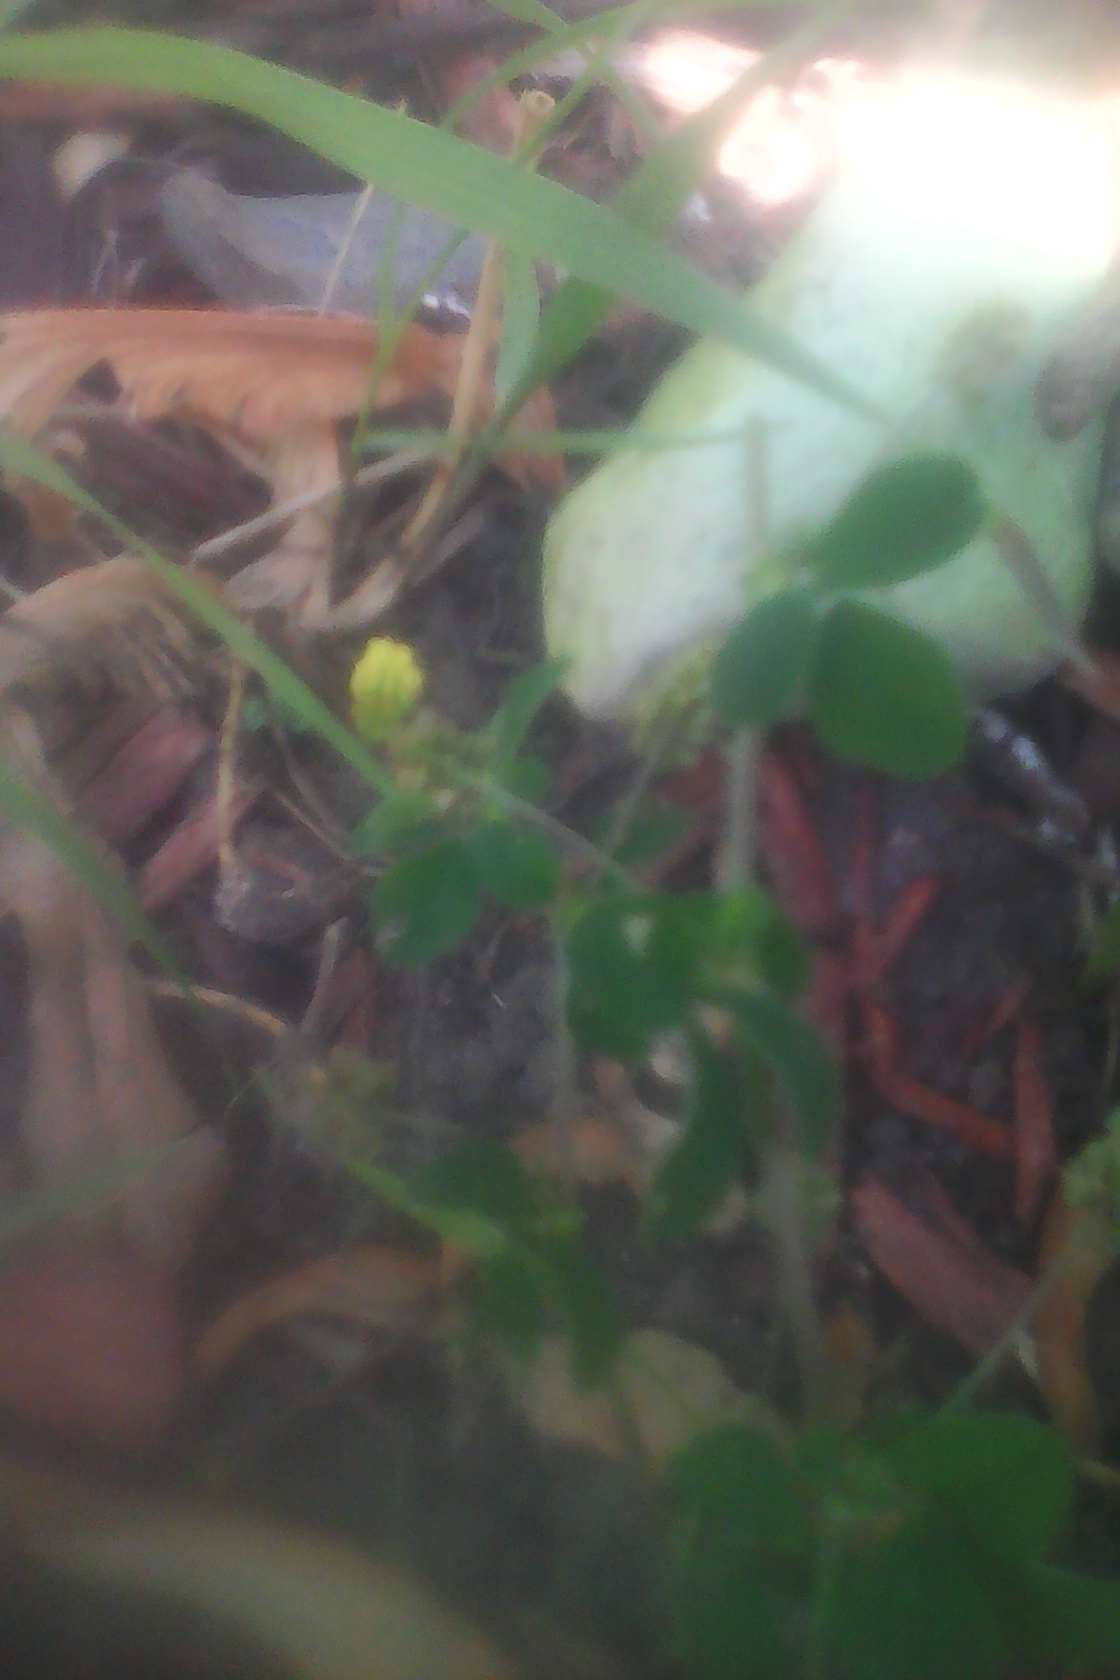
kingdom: Plantae
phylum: Tracheophyta
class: Magnoliopsida
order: Fabales
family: Fabaceae
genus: Medicago
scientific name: Medicago lupulina
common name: Black medick
